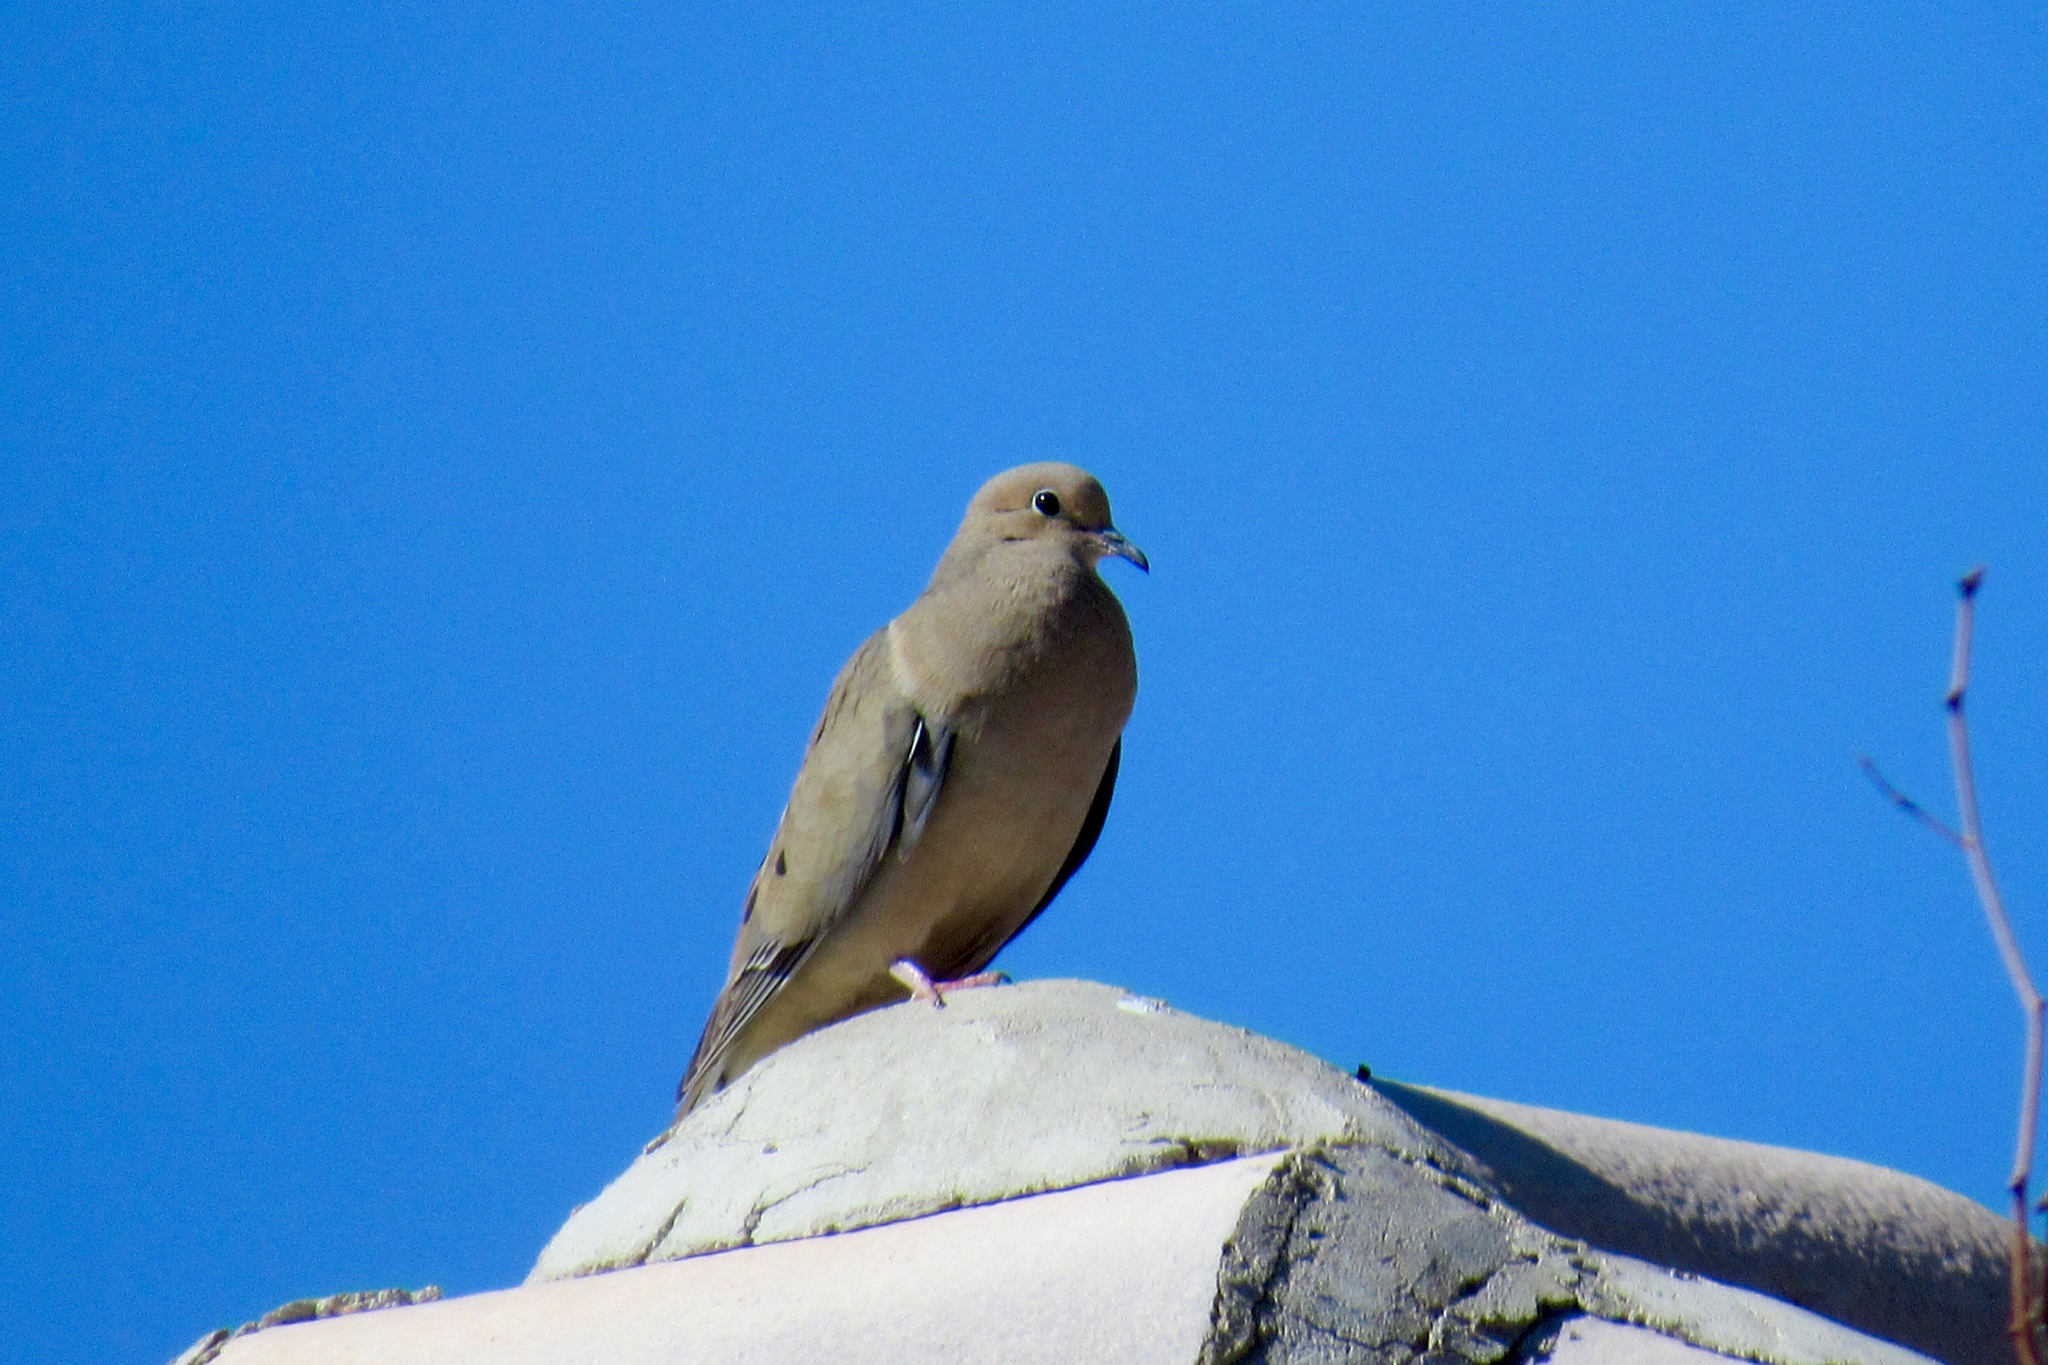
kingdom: Animalia
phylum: Chordata
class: Aves
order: Columbiformes
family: Columbidae
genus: Zenaida
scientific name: Zenaida macroura
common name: Mourning dove
